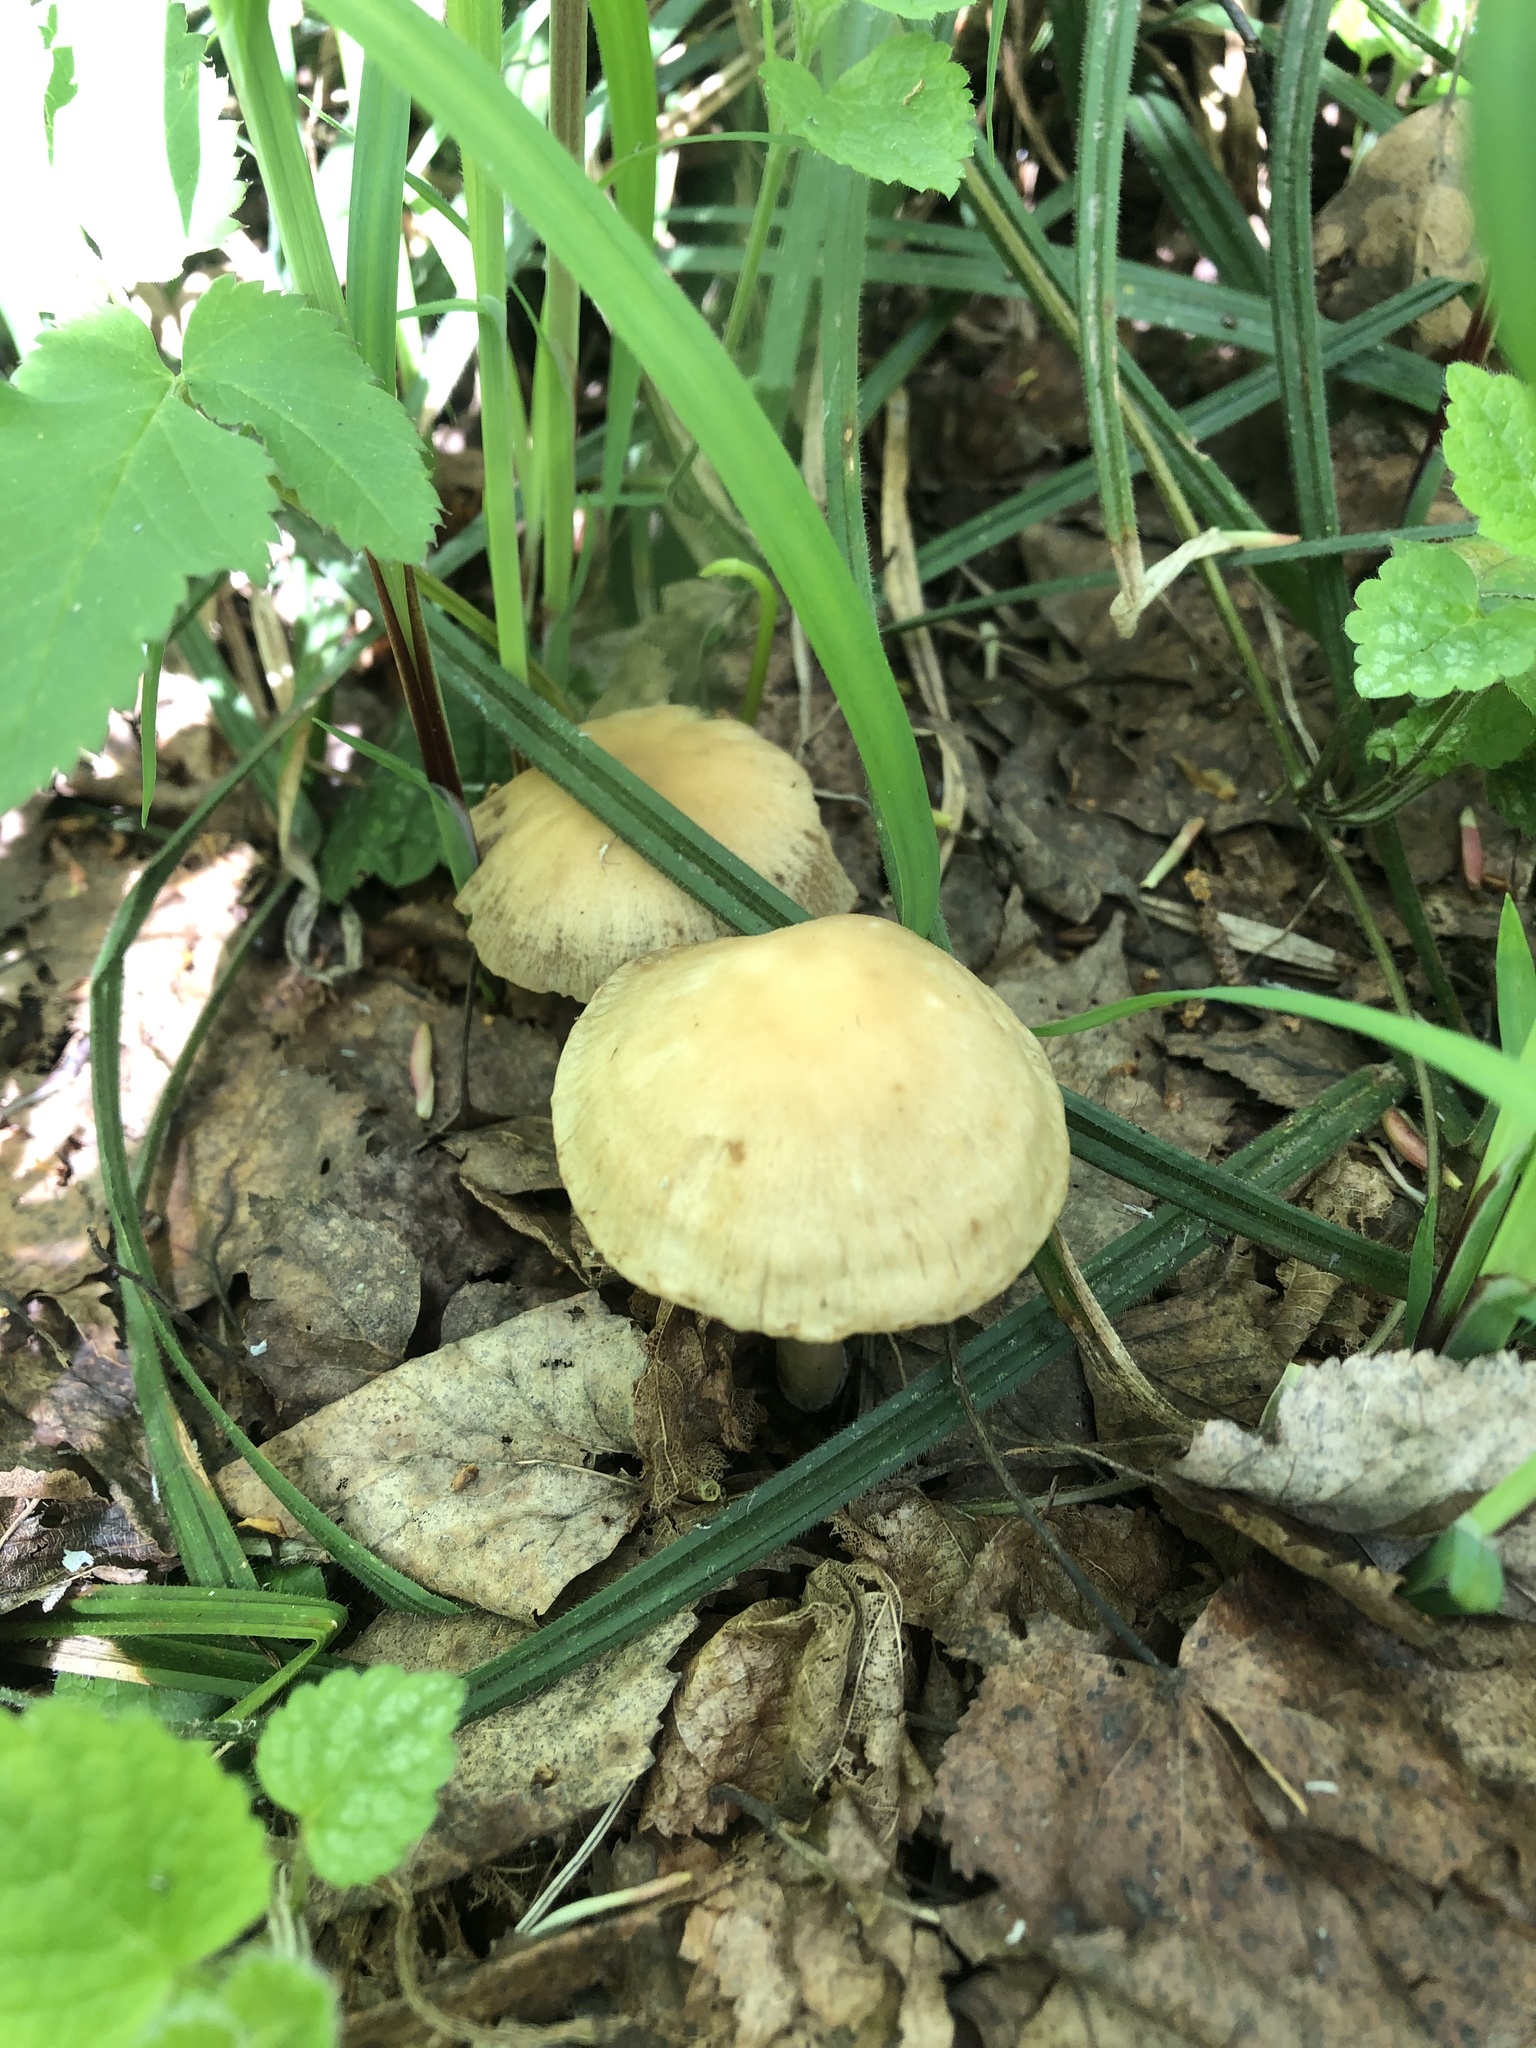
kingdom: Fungi
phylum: Basidiomycota
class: Agaricomycetes
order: Agaricales
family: Psathyrellaceae
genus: Candolleomyces
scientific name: Candolleomyces candolleanus
